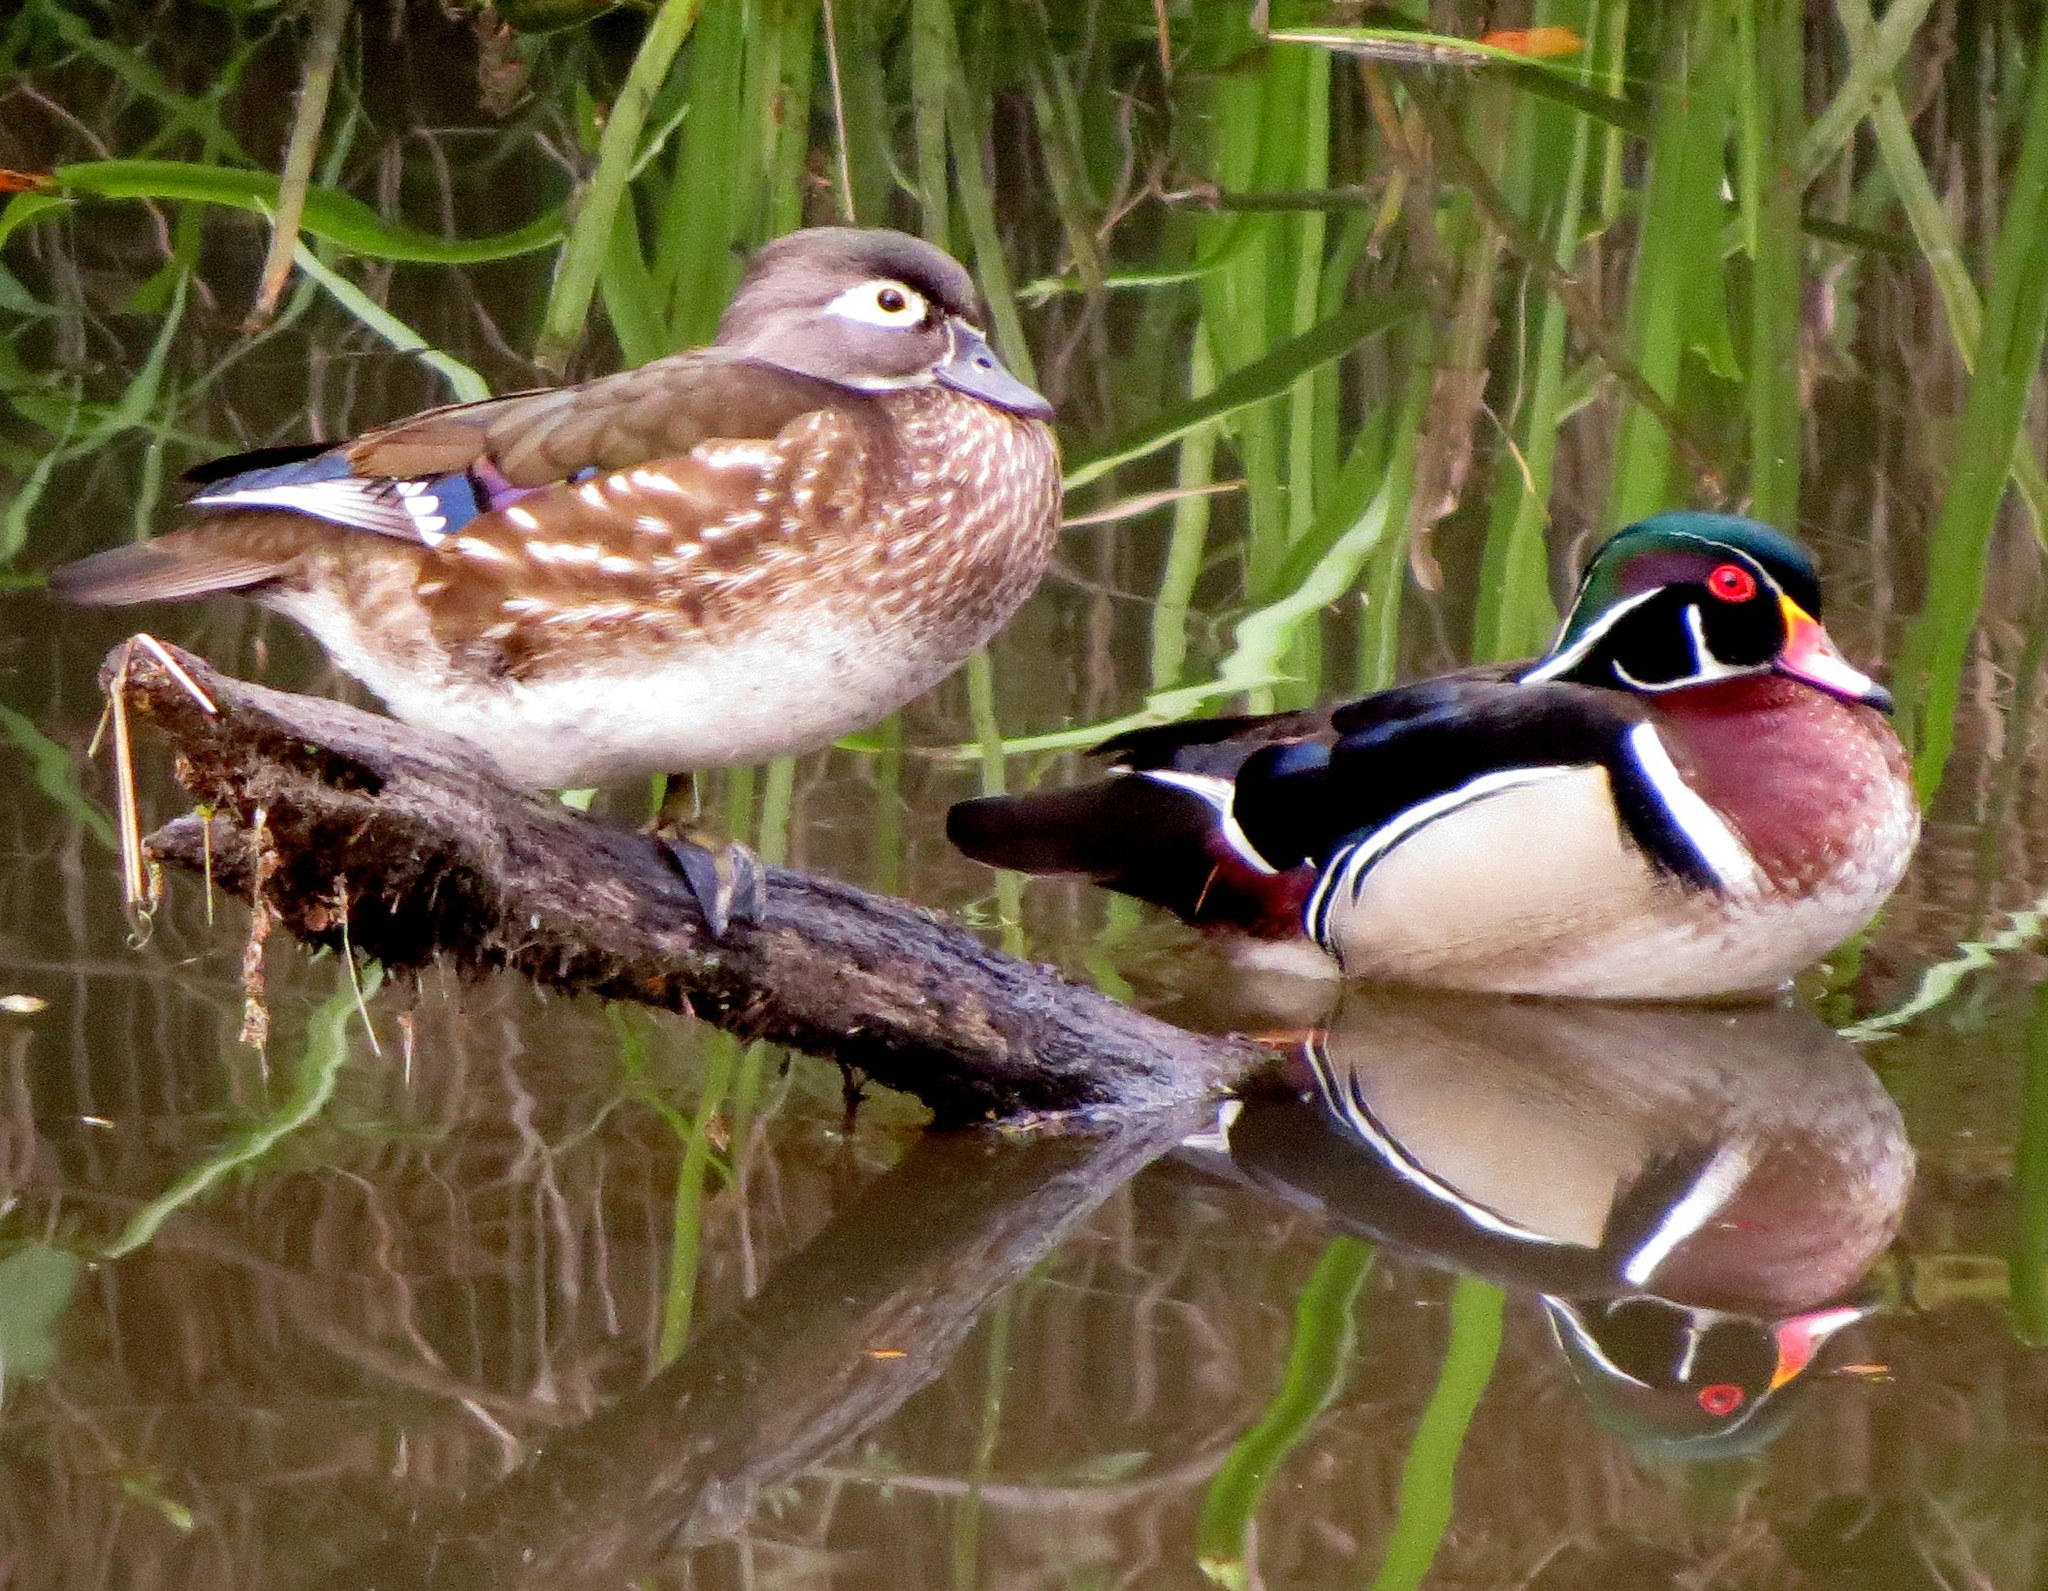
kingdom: Animalia
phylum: Chordata
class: Aves
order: Anseriformes
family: Anatidae
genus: Aix
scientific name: Aix sponsa
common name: Wood duck
